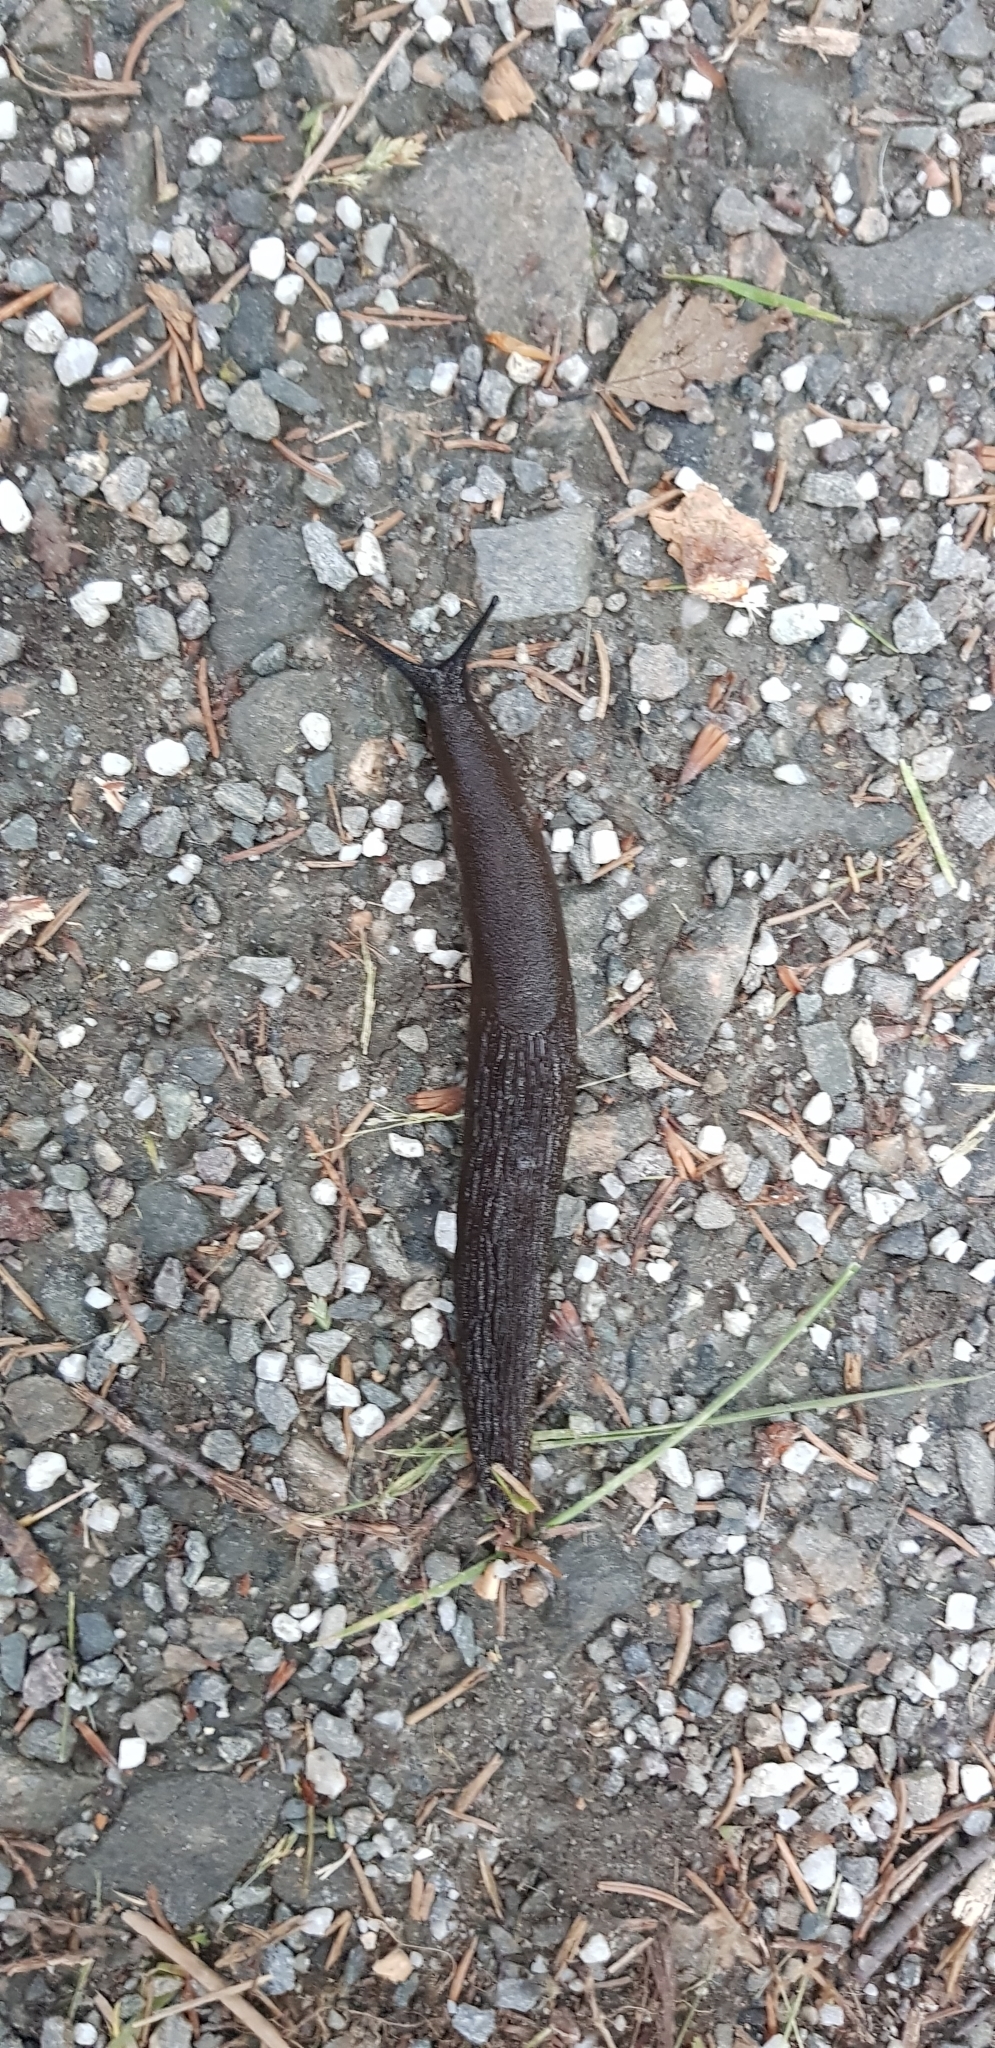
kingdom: Animalia
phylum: Mollusca
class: Gastropoda
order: Stylommatophora
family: Arionidae
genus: Arion
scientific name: Arion ater
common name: Black arion
